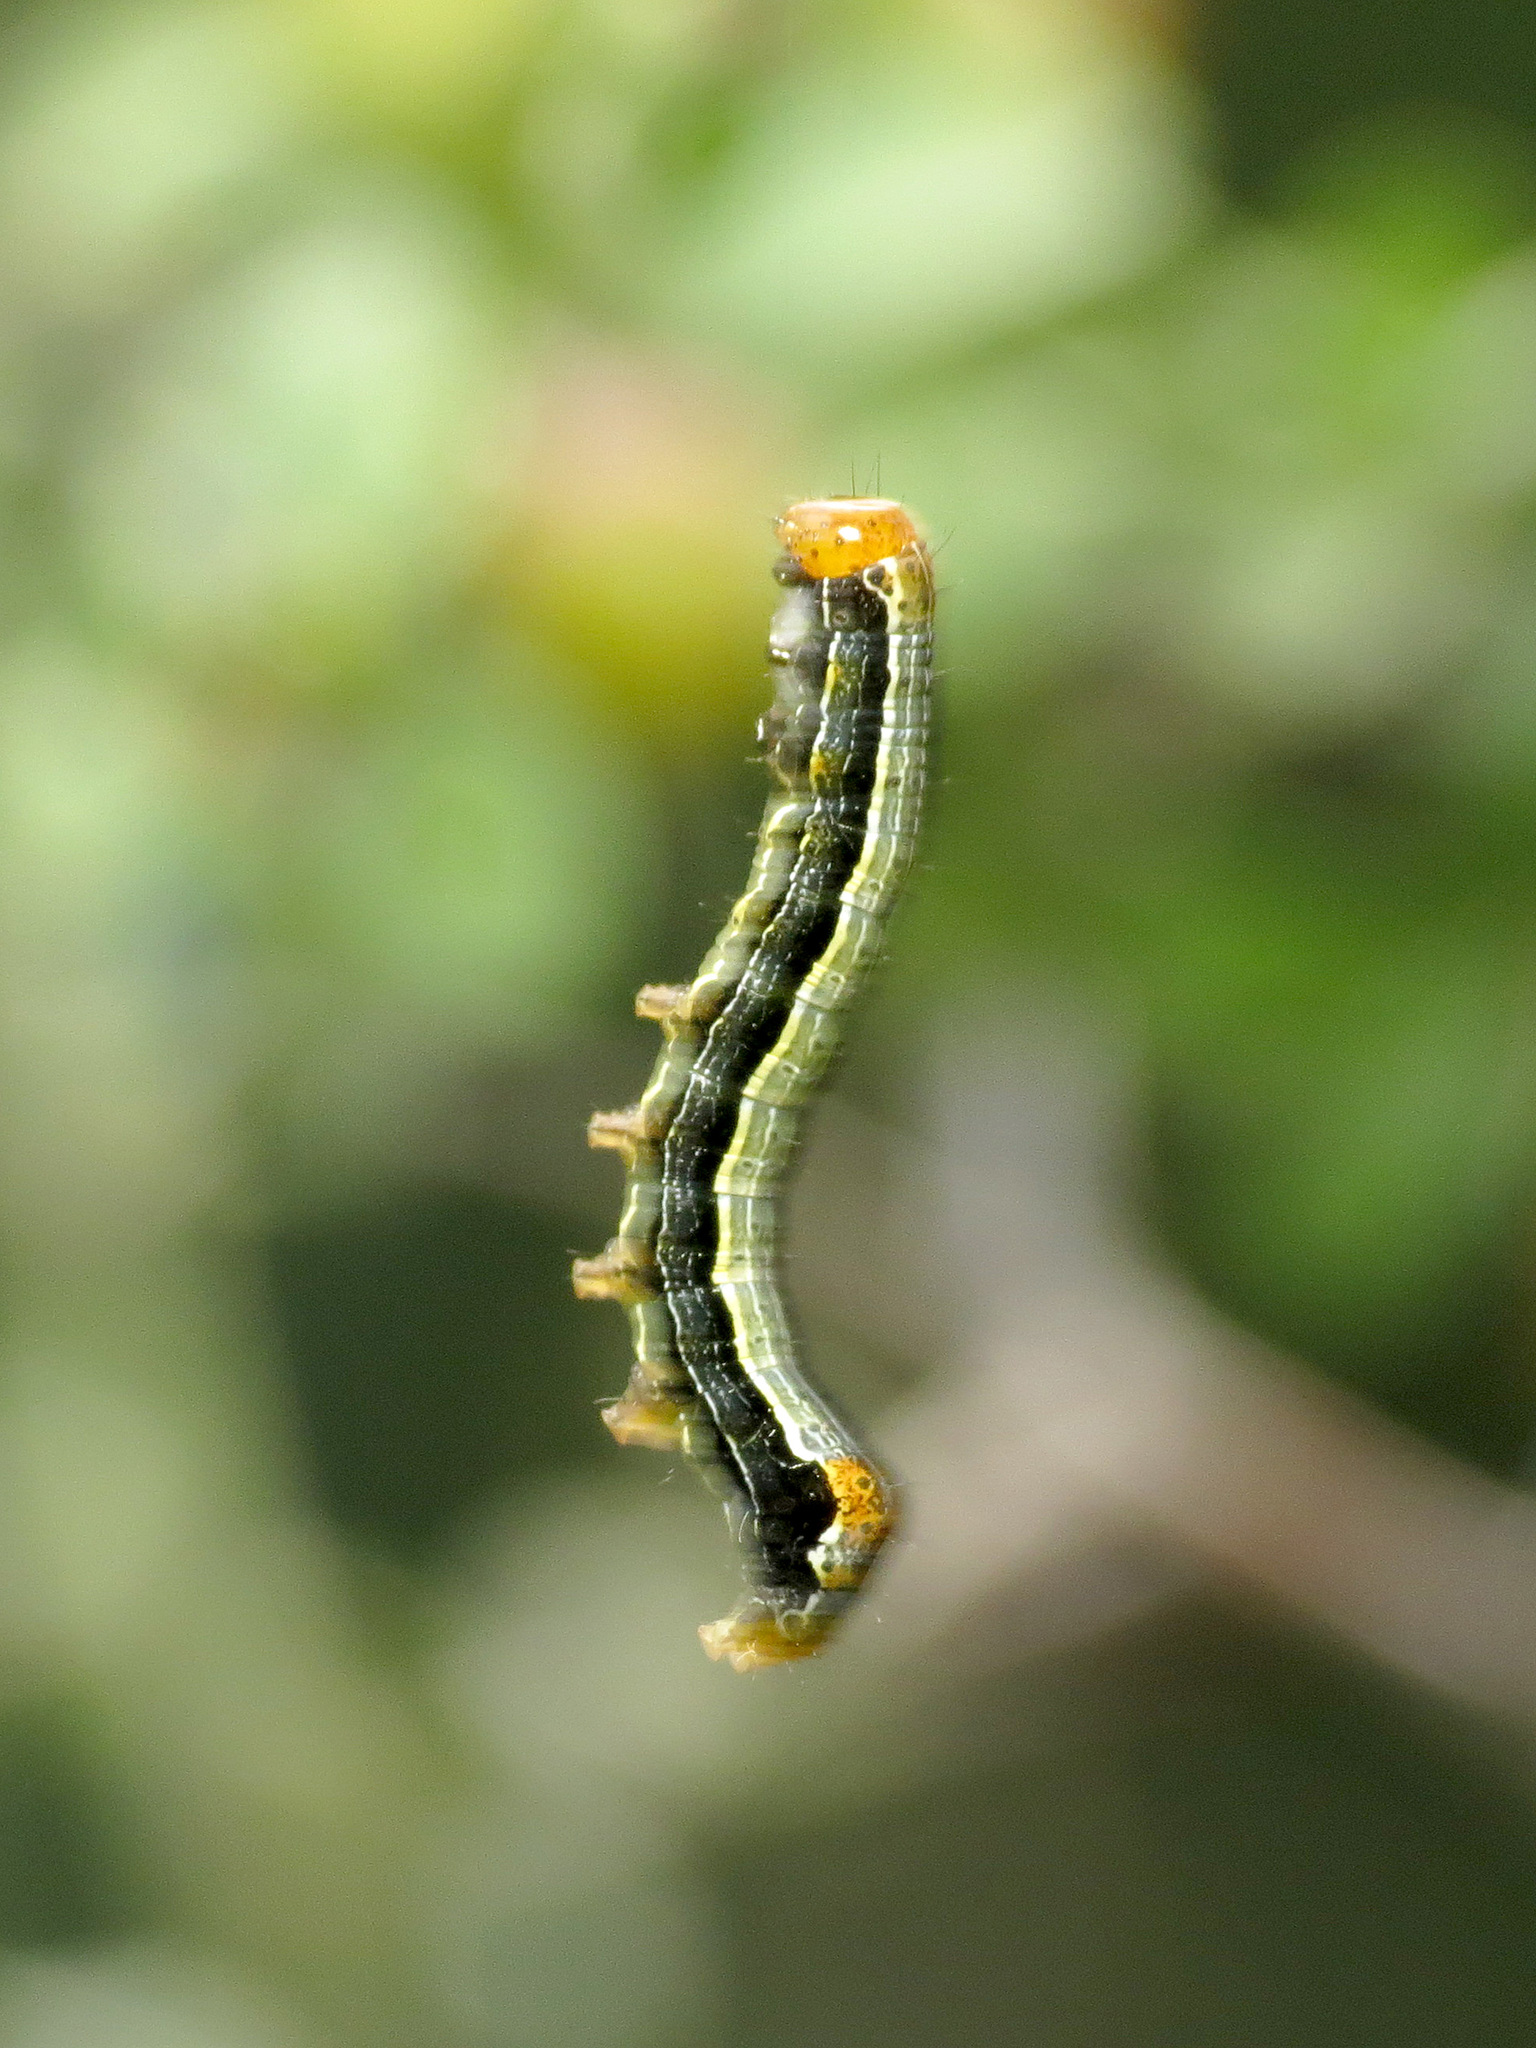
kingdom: Animalia
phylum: Arthropoda
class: Insecta
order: Lepidoptera
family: Noctuidae
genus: Magusa
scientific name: Magusa divaricata
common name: Orb narrow-winged moth
